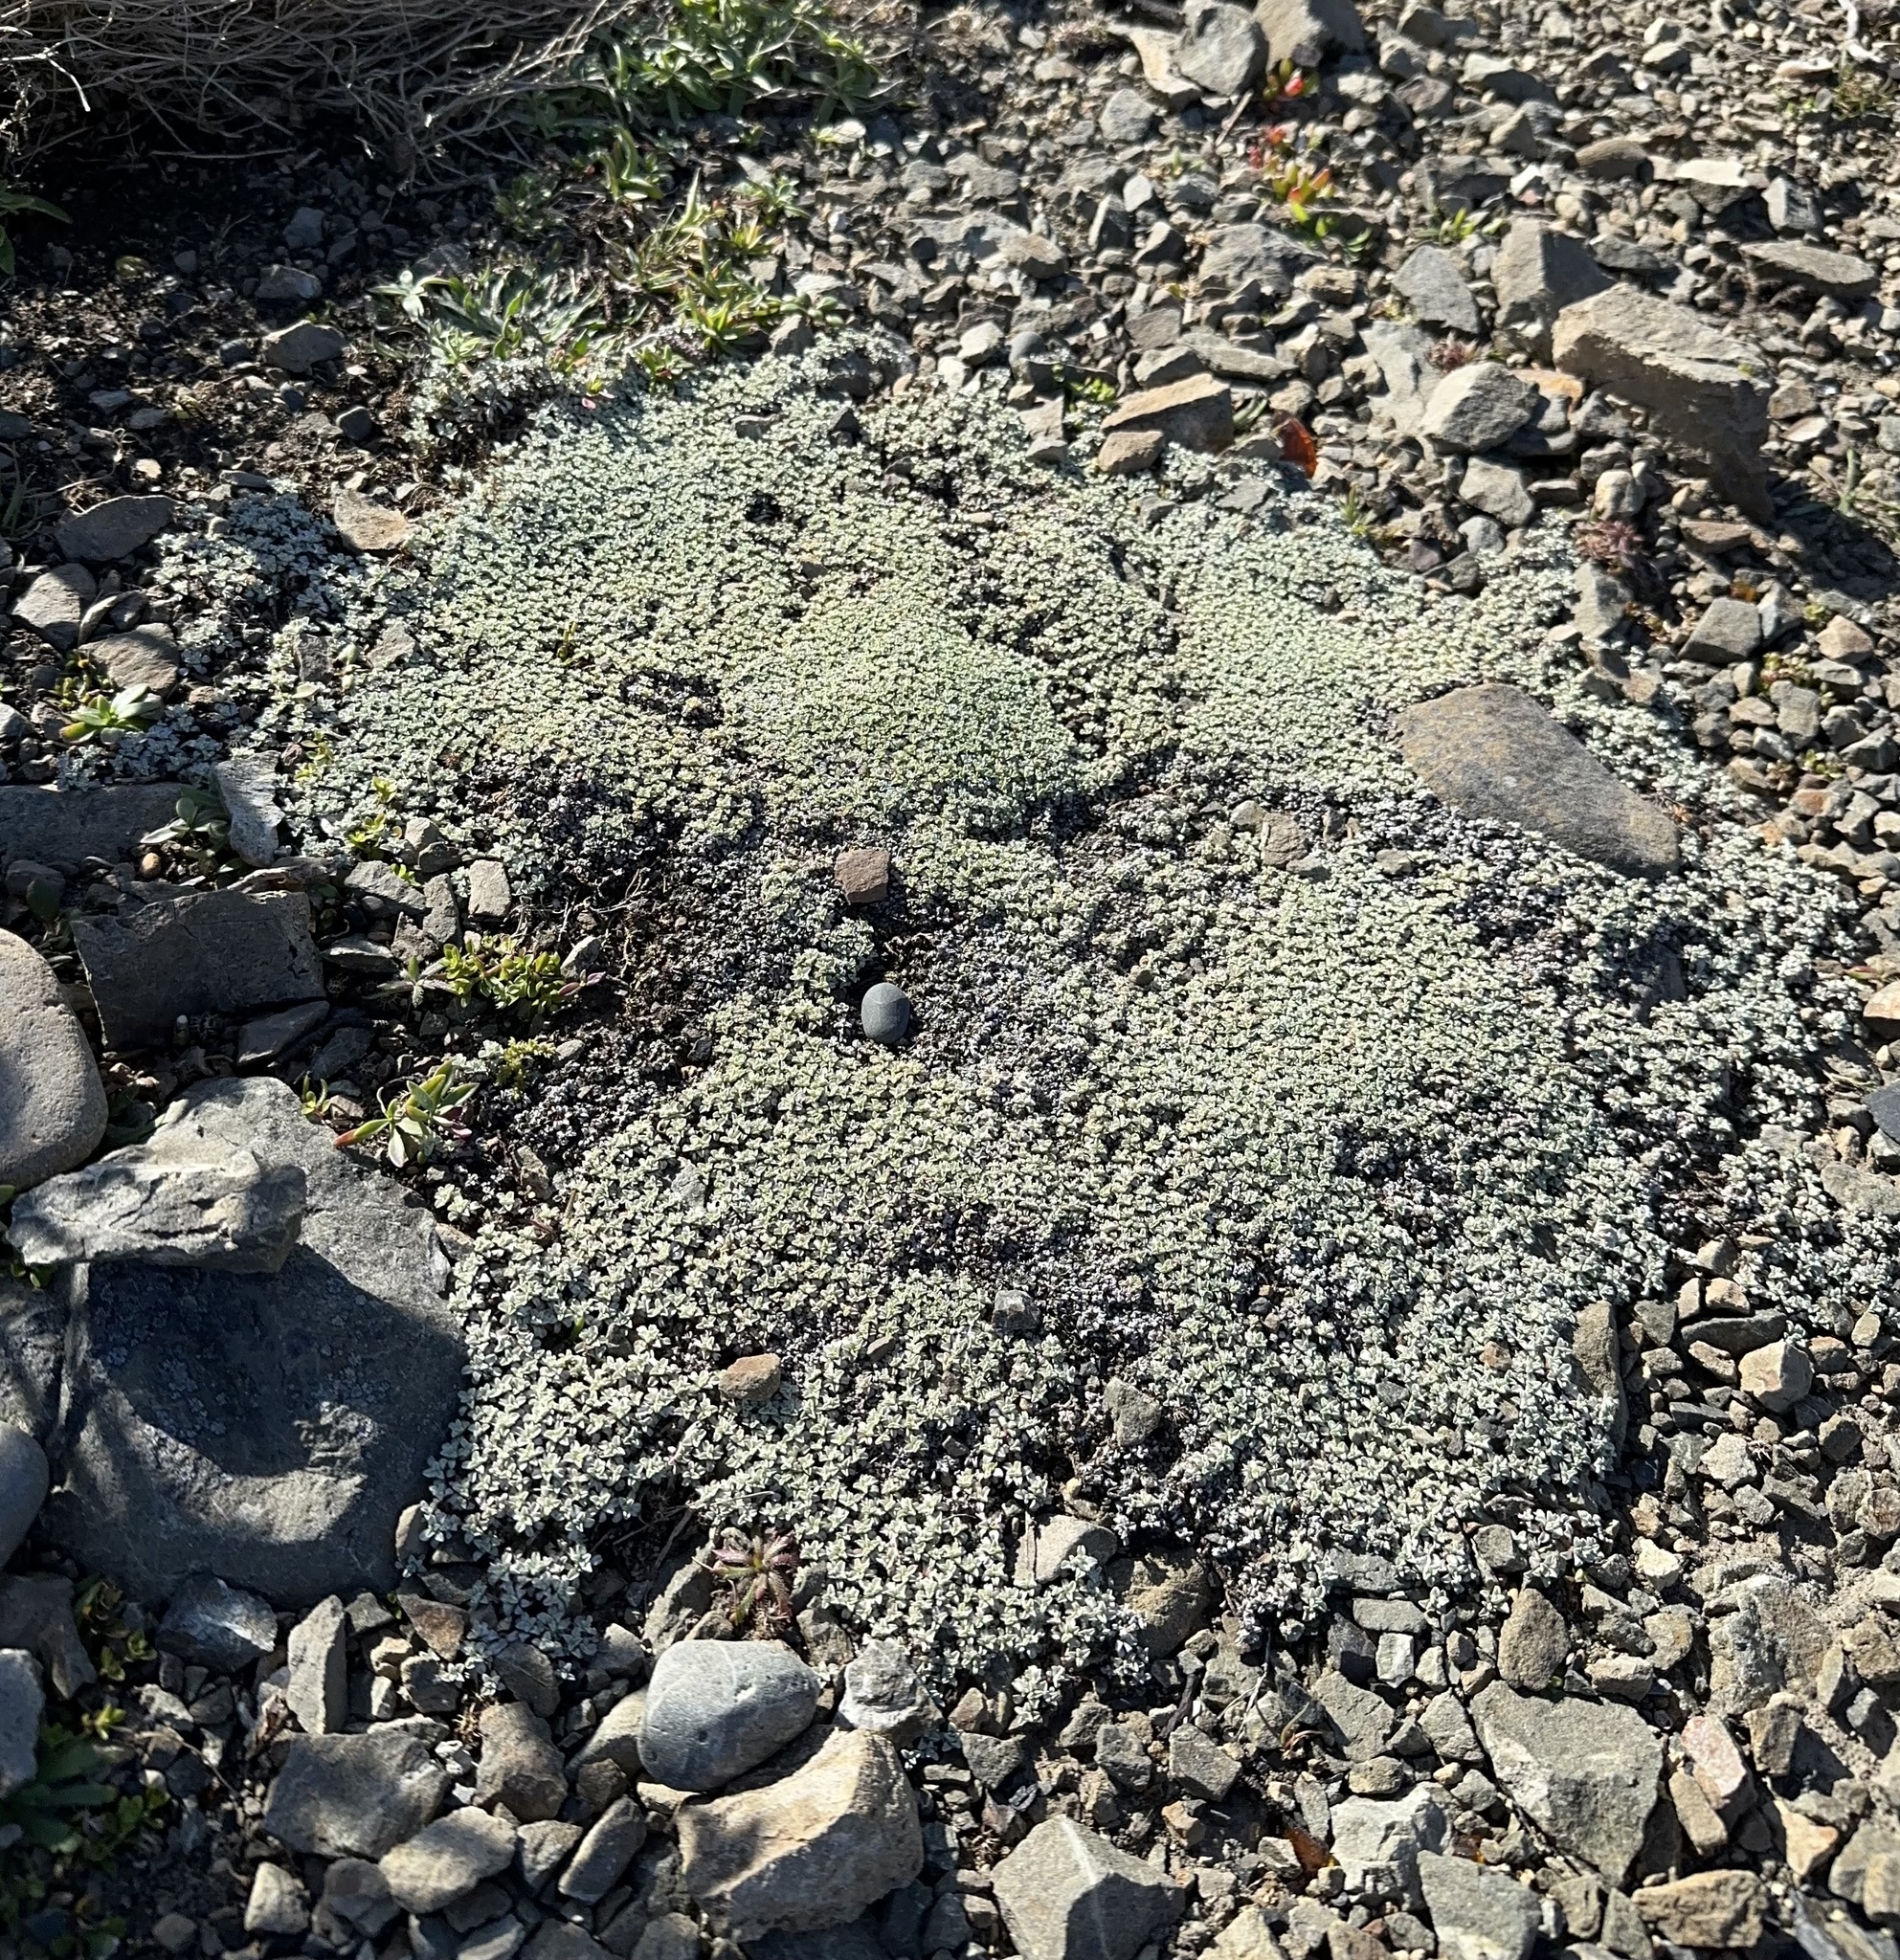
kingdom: Plantae
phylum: Tracheophyta
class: Magnoliopsida
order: Asterales
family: Asteraceae
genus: Raoulia
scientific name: Raoulia hookeri
